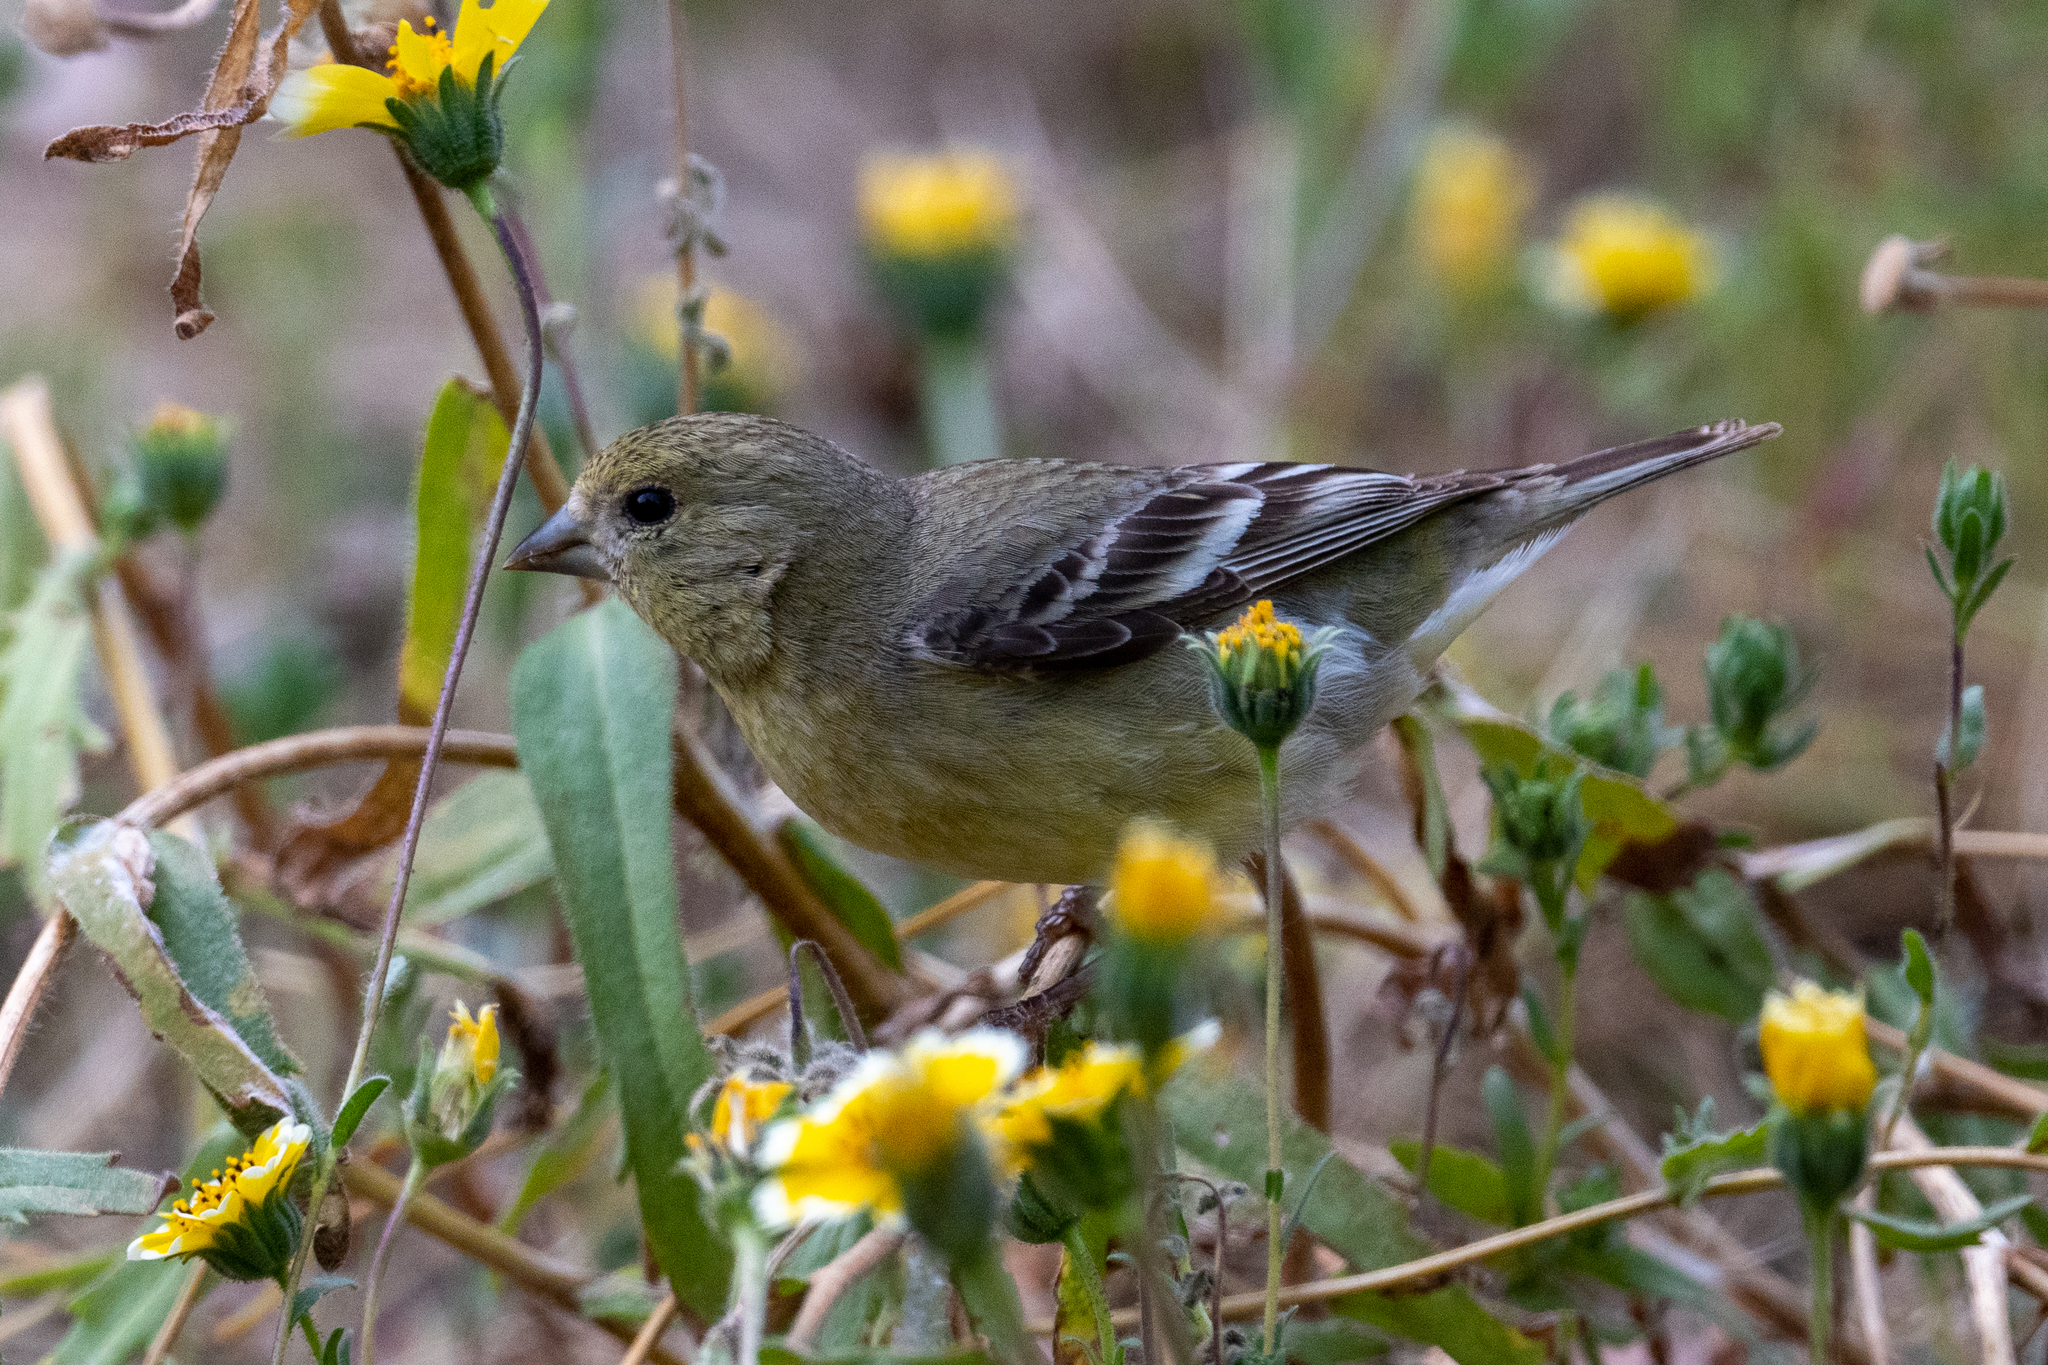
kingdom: Animalia
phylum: Chordata
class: Aves
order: Passeriformes
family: Fringillidae
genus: Spinus
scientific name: Spinus psaltria
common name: Lesser goldfinch
